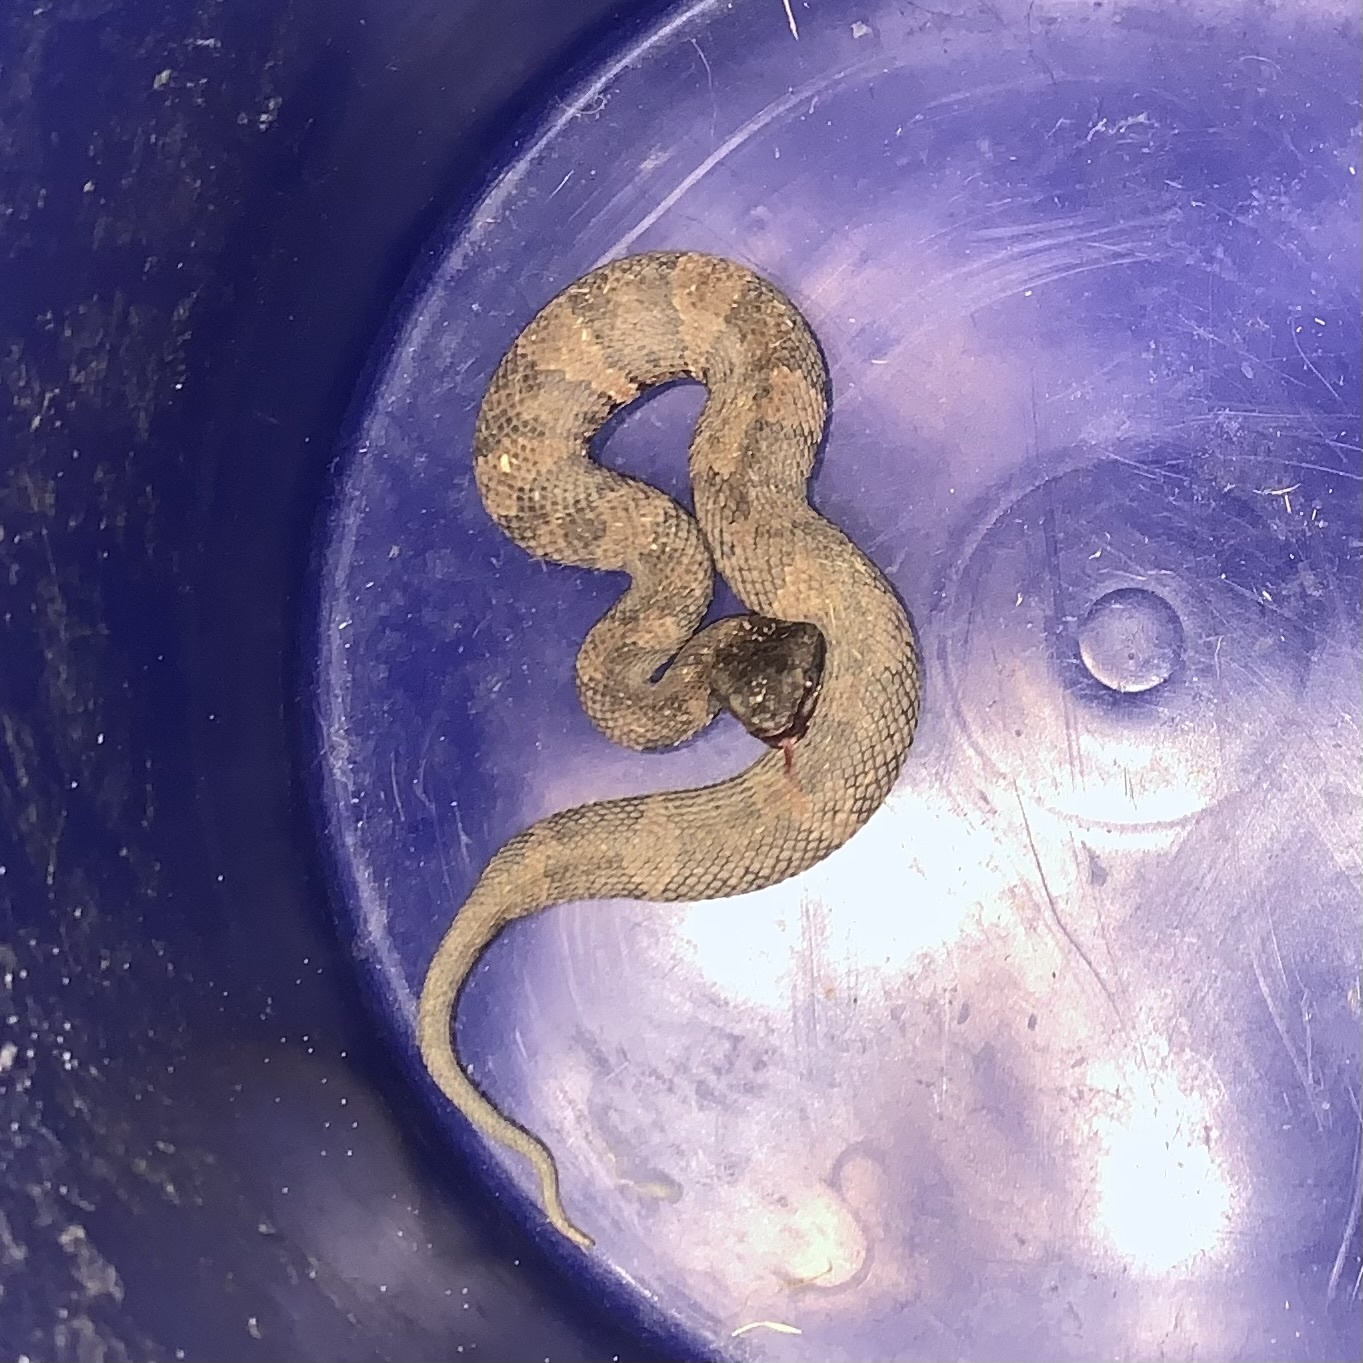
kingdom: Animalia
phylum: Chordata
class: Squamata
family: Viperidae
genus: Agkistrodon
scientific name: Agkistrodon piscivorus
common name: Cottonmouth
